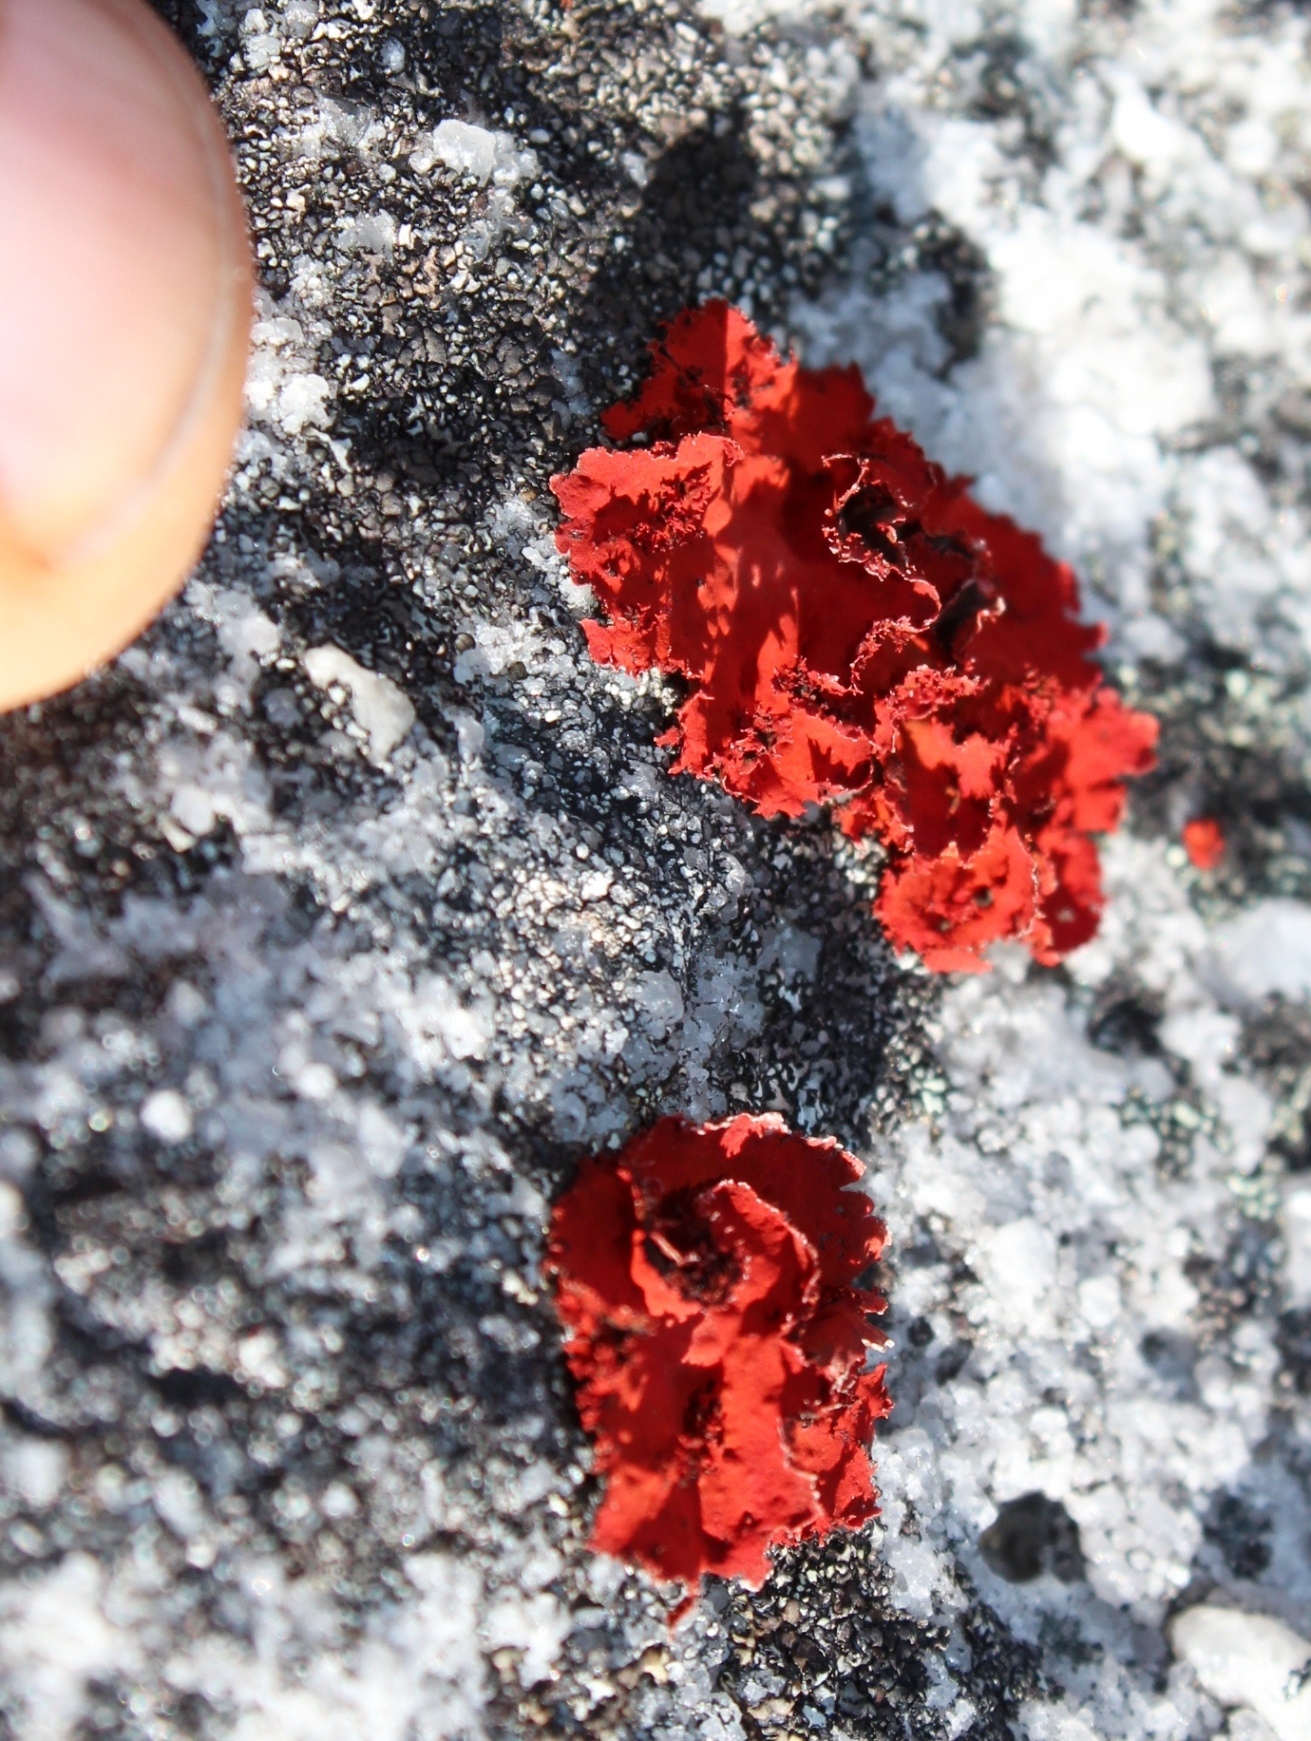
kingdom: Fungi
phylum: Ascomycota
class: Lecanoromycetes
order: Umbilicariales
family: Umbilicariaceae
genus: Lasallia
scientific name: Lasallia rubiginosa
